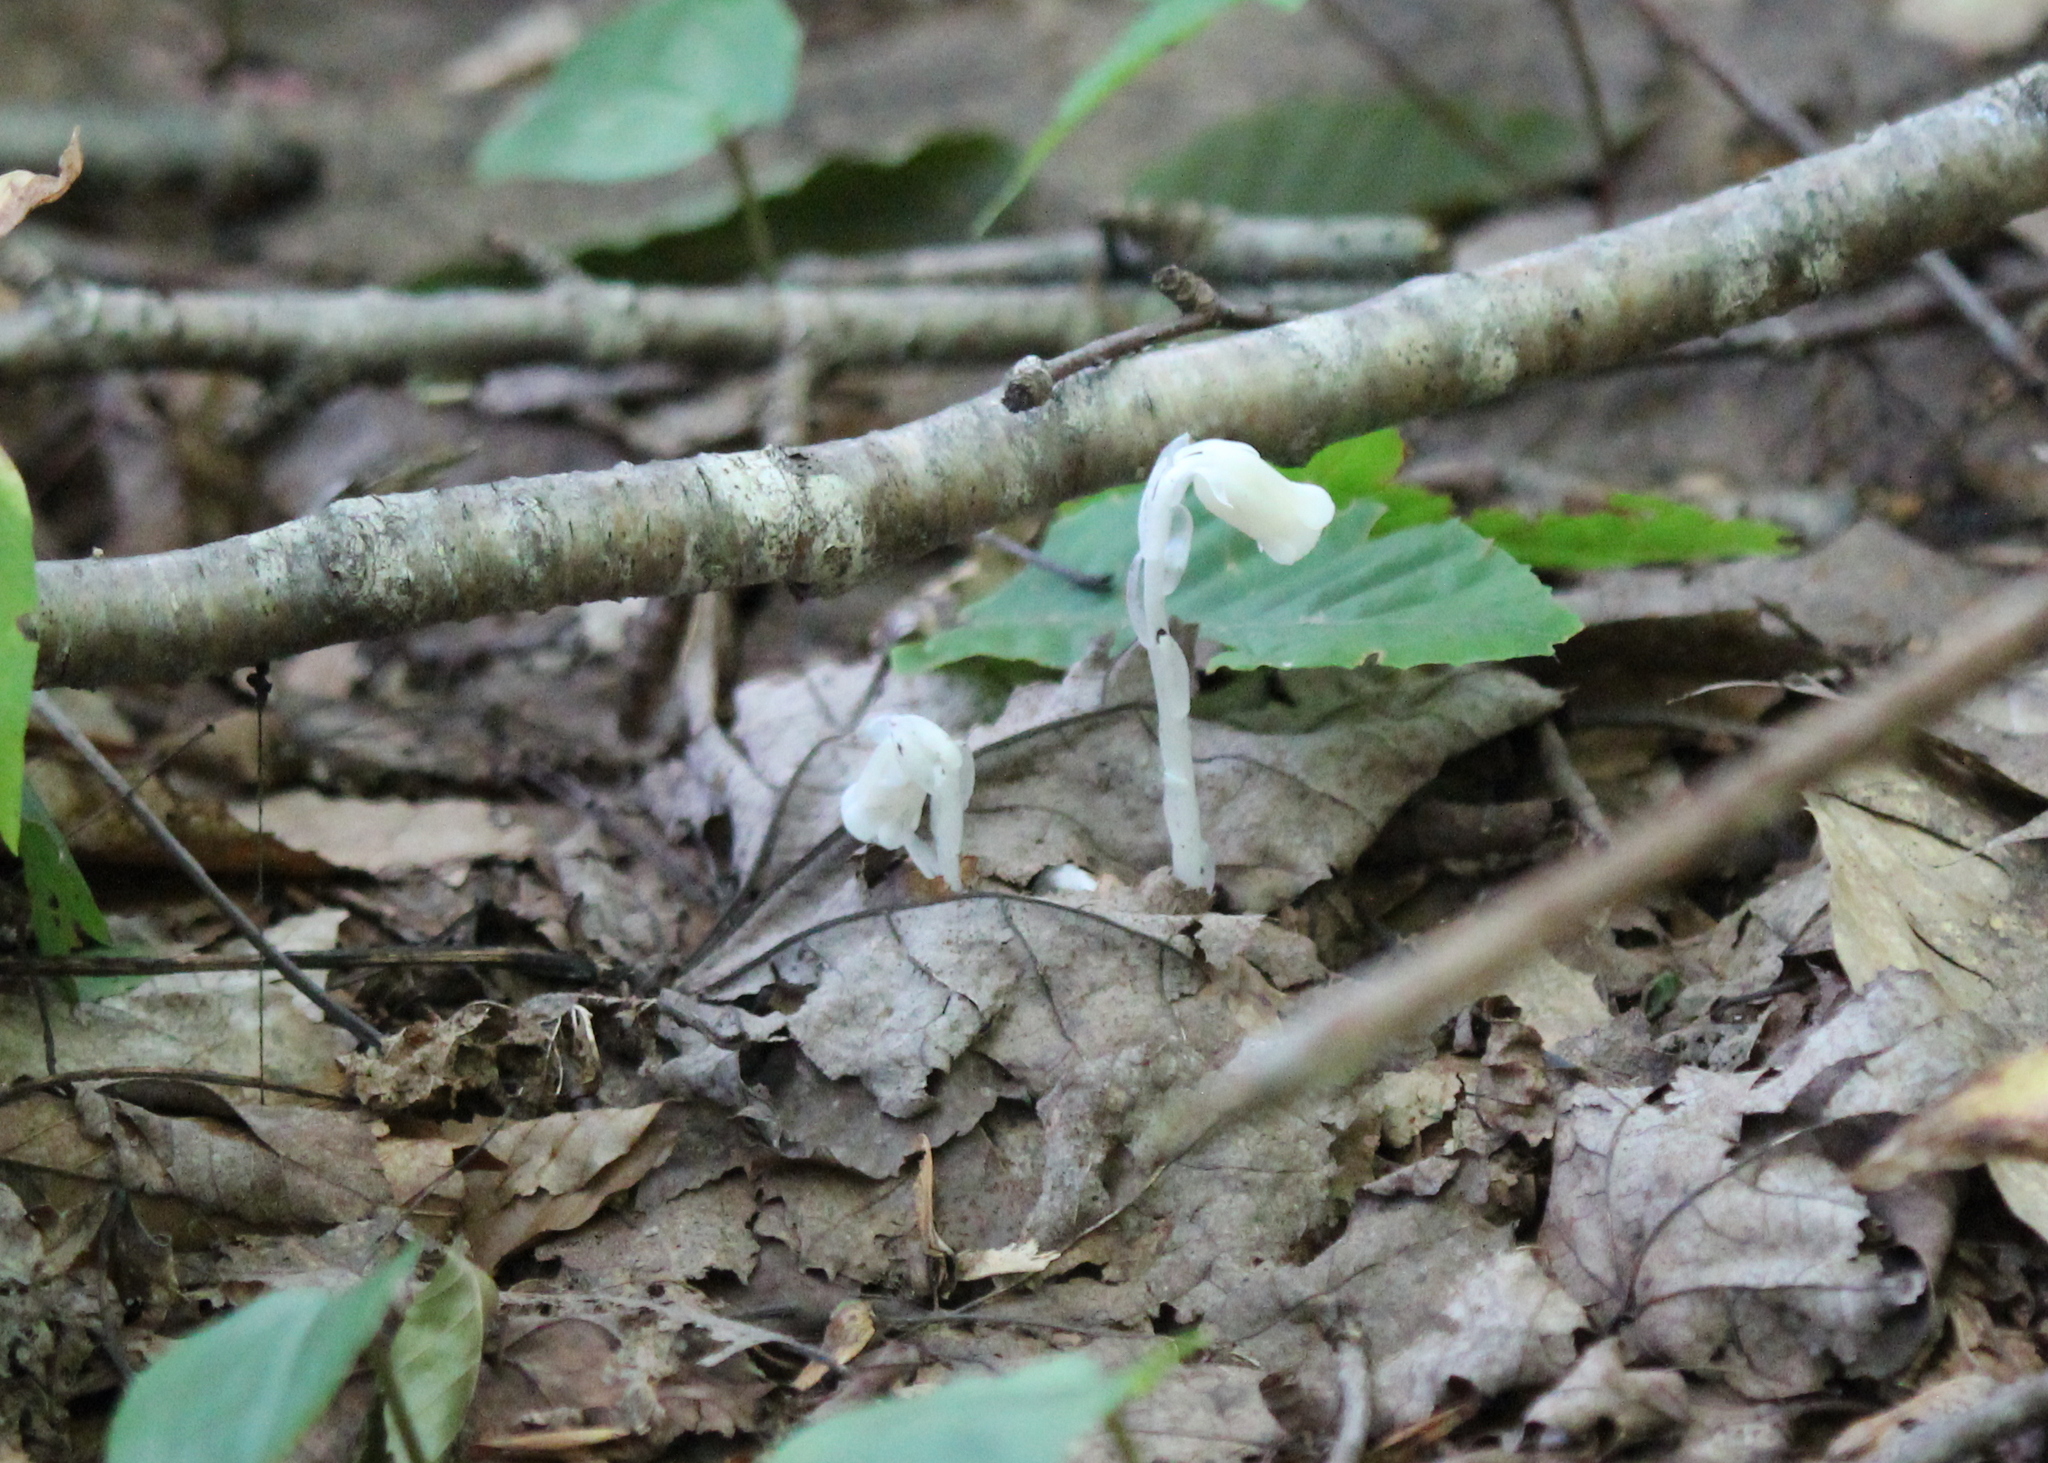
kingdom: Plantae
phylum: Tracheophyta
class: Magnoliopsida
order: Ericales
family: Ericaceae
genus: Monotropa
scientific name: Monotropa uniflora
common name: Convulsion root
